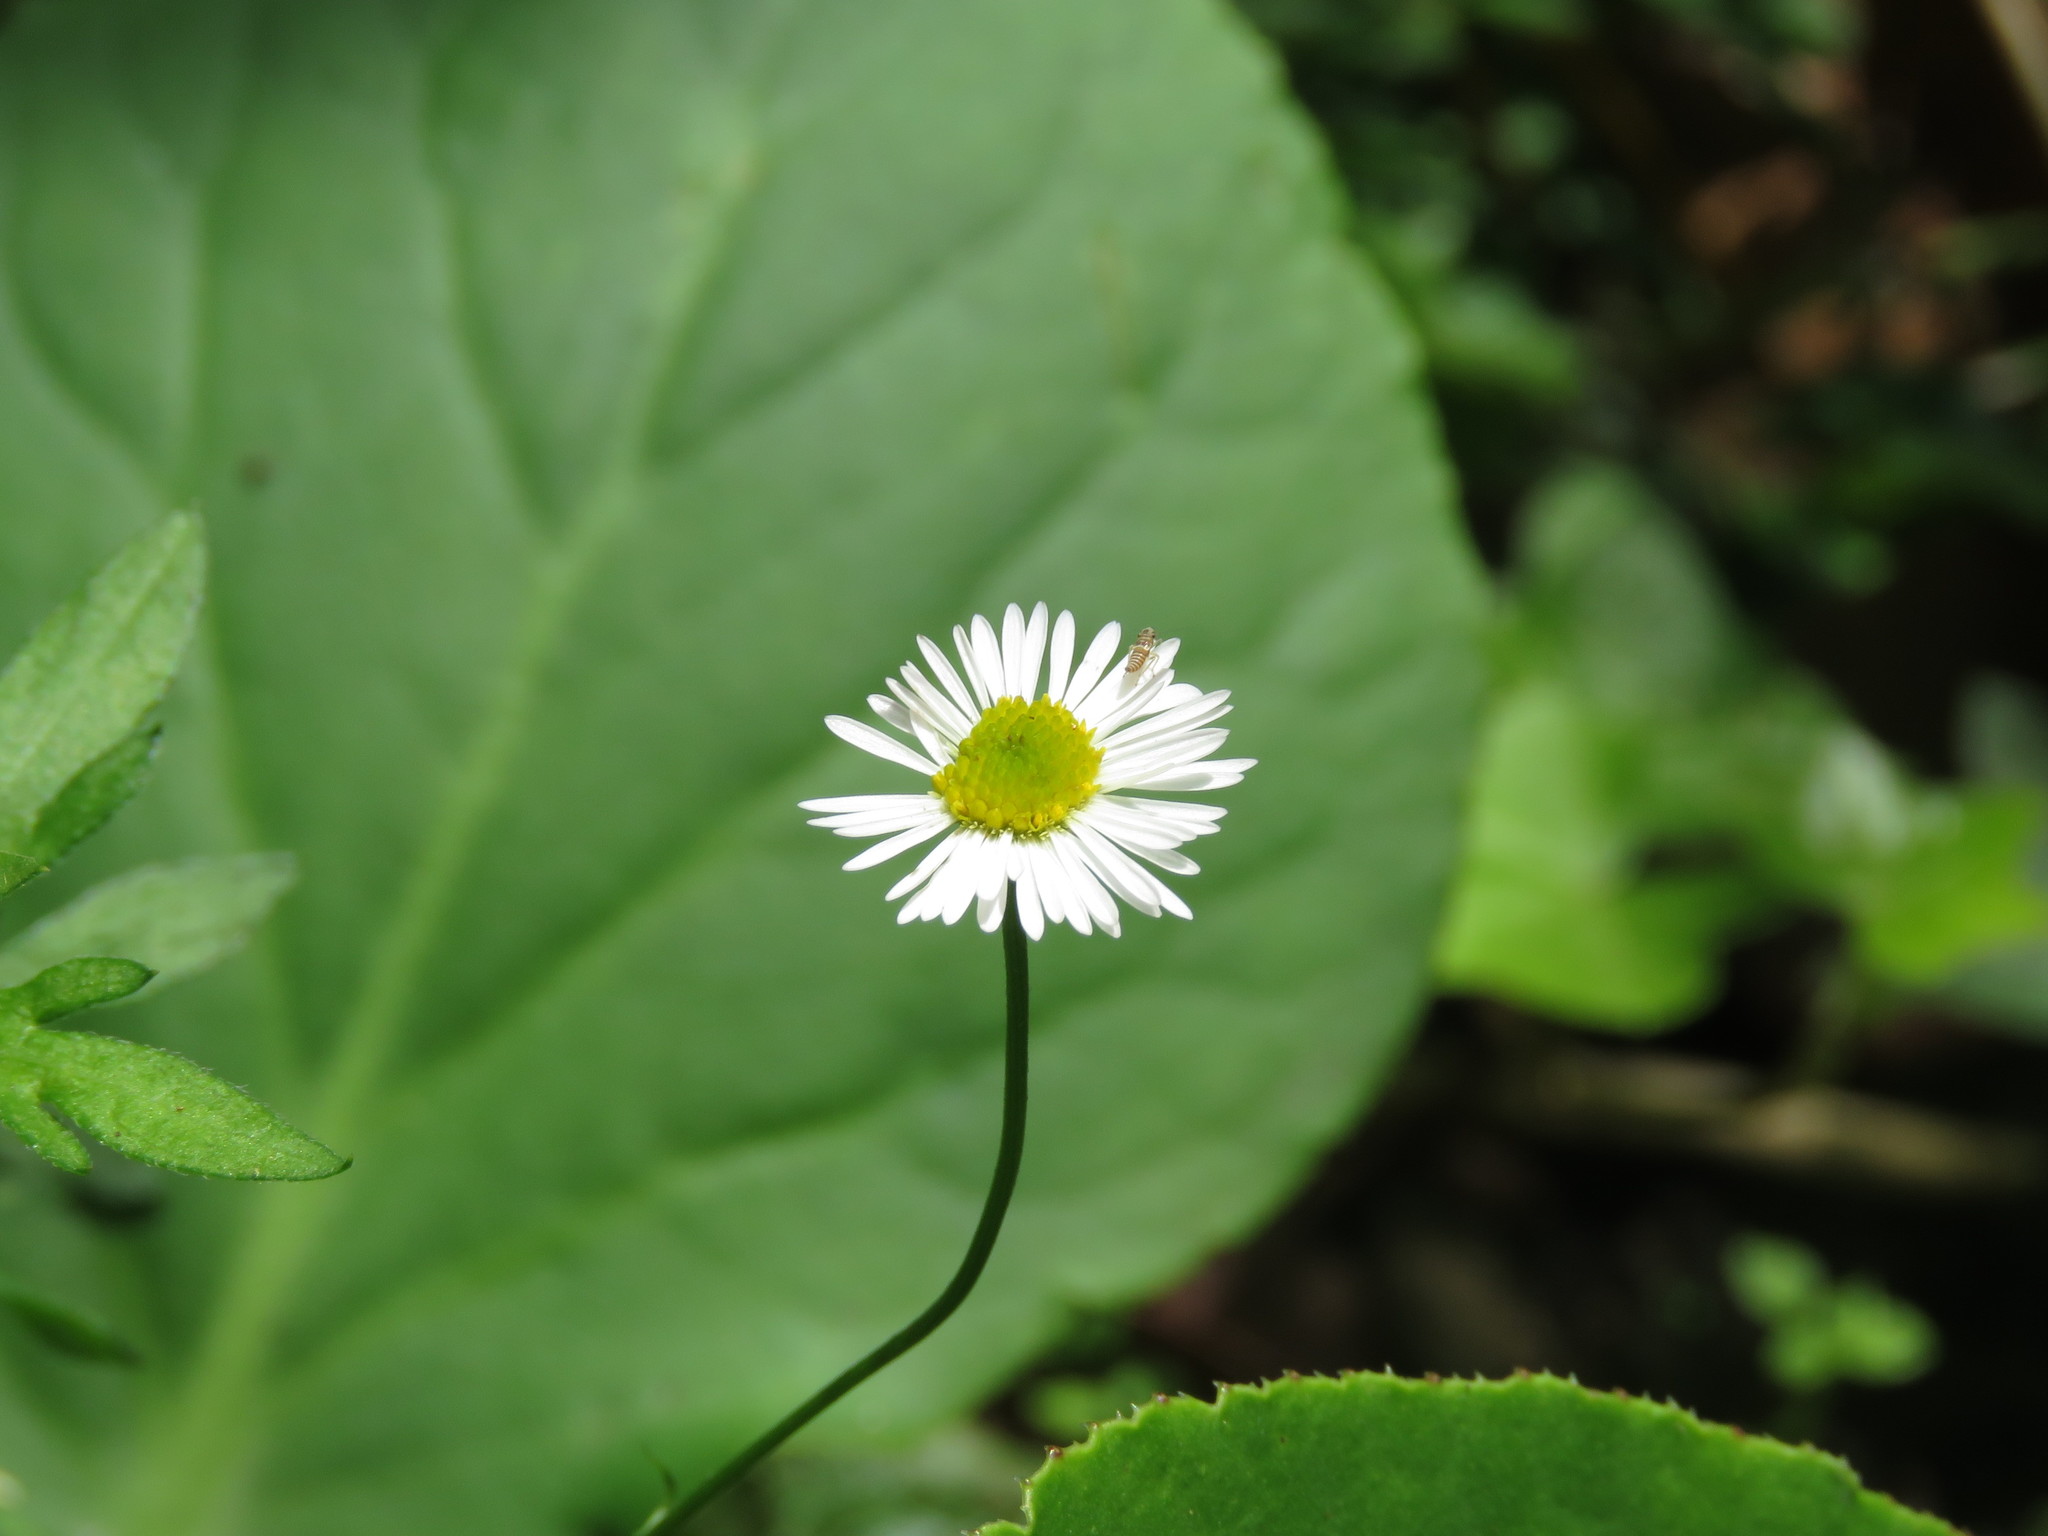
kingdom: Plantae
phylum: Tracheophyta
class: Magnoliopsida
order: Asterales
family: Asteraceae
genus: Erigeron
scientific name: Erigeron karvinskianus
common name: Mexican fleabane
